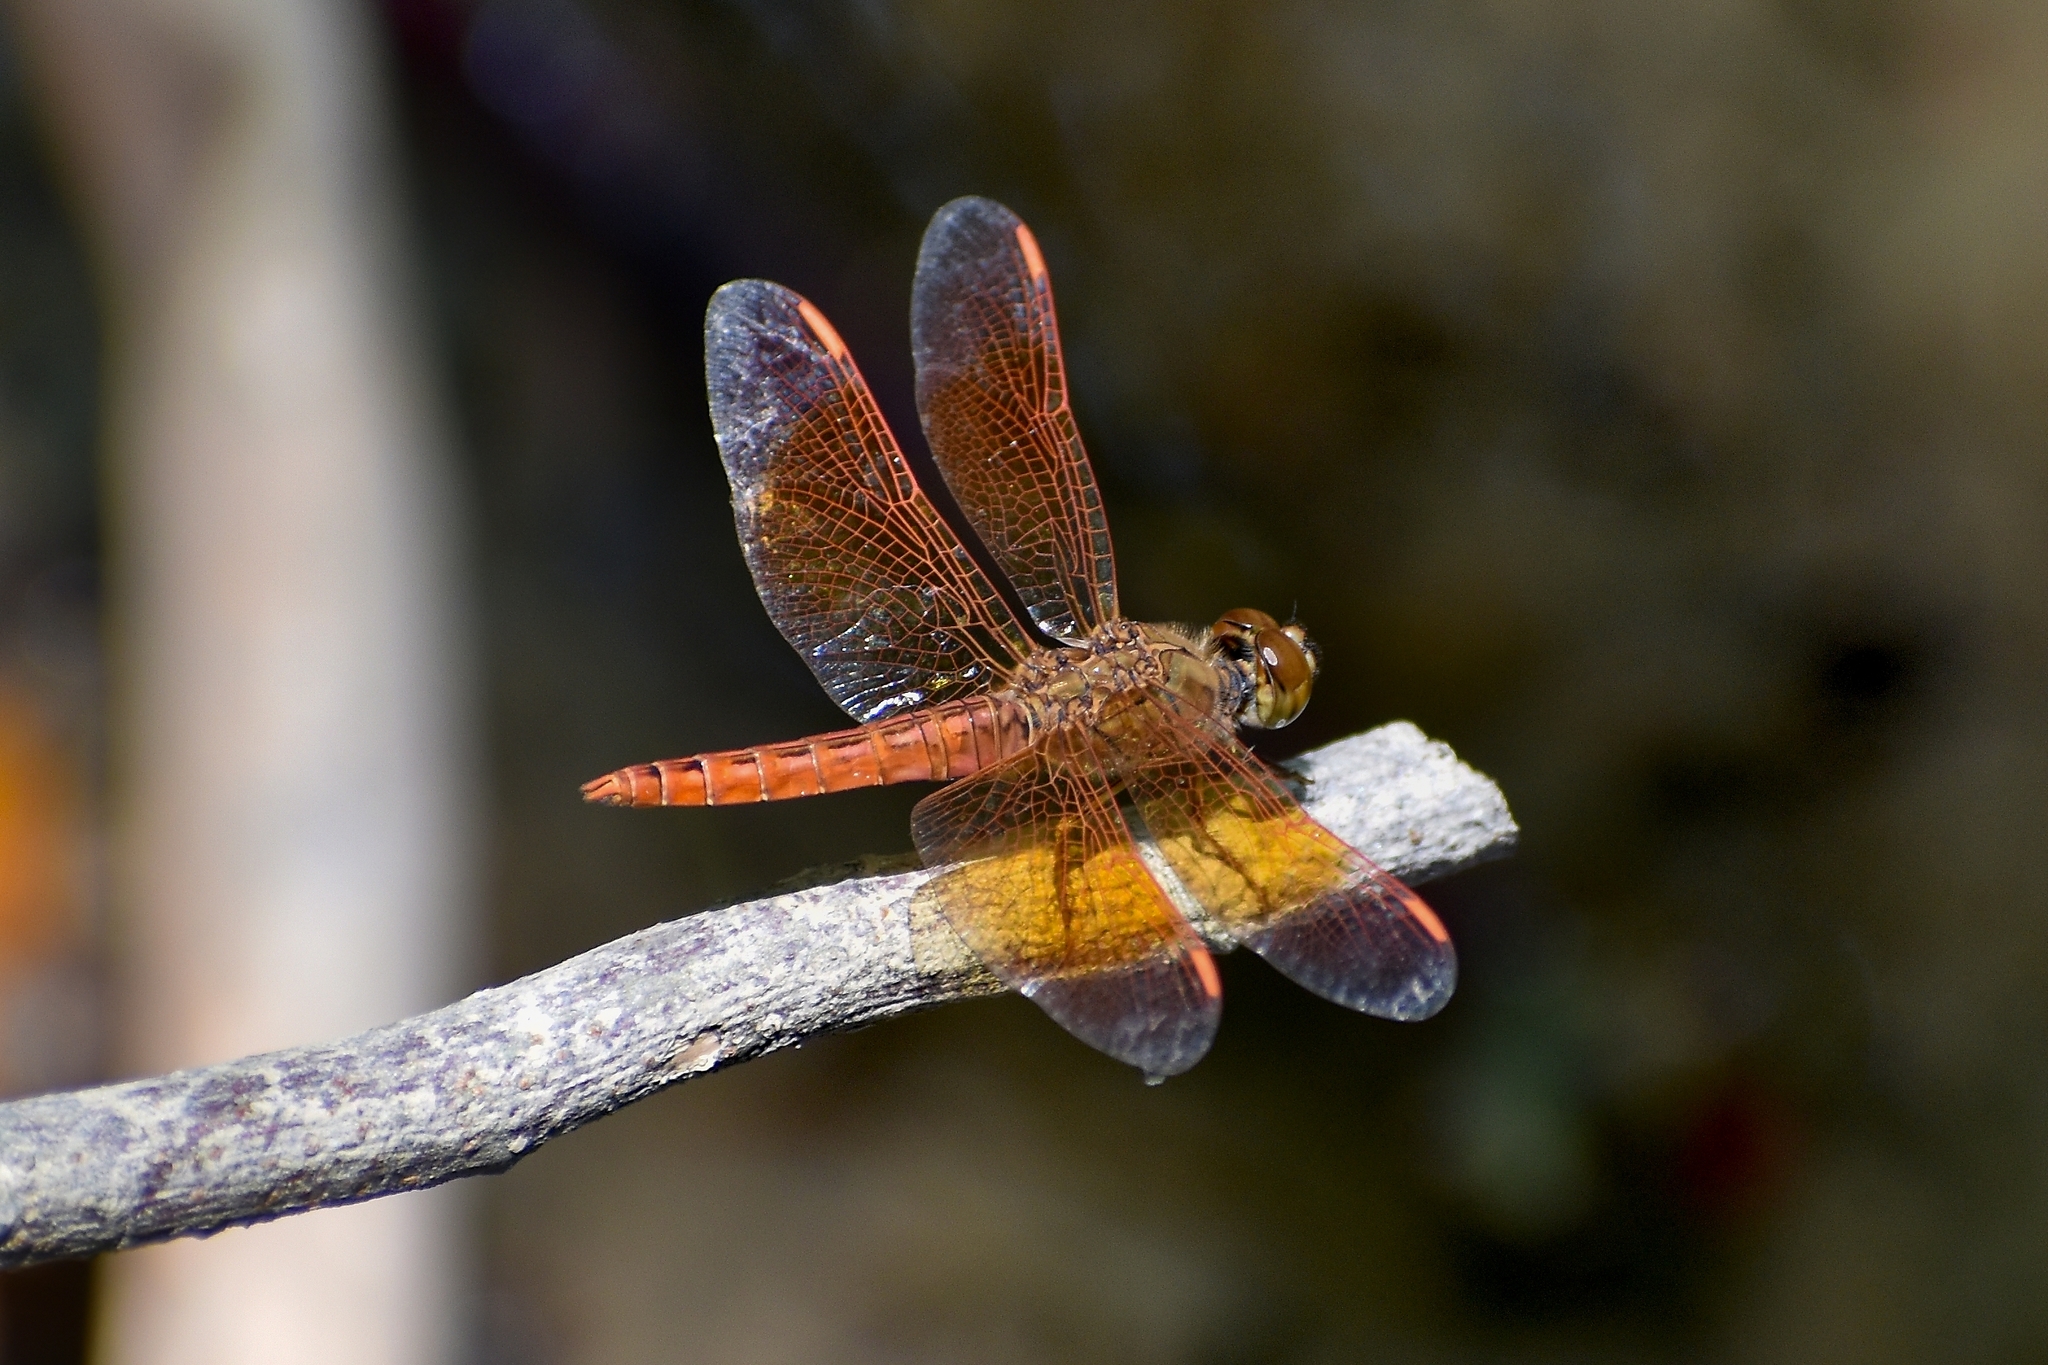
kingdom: Animalia
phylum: Arthropoda
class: Insecta
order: Odonata
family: Libellulidae
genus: Brachythemis
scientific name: Brachythemis contaminata
